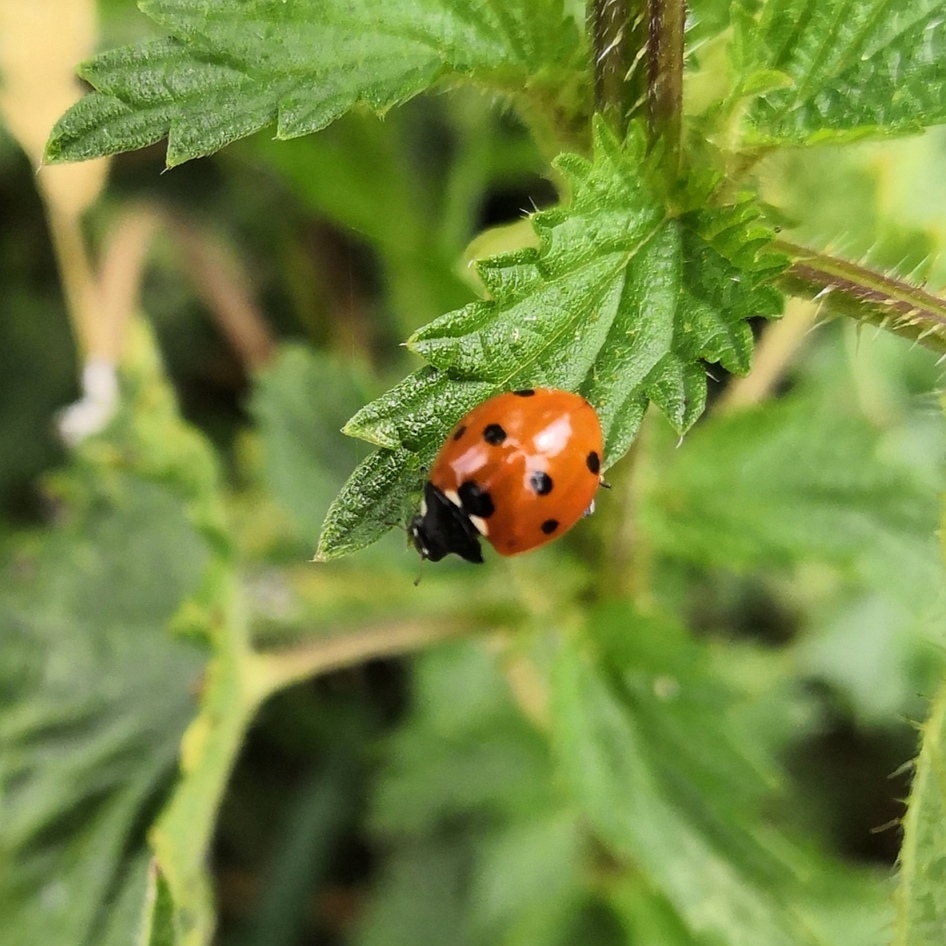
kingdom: Animalia
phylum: Arthropoda
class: Insecta
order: Coleoptera
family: Coccinellidae
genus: Coccinella
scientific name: Coccinella septempunctata
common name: Sevenspotted lady beetle
